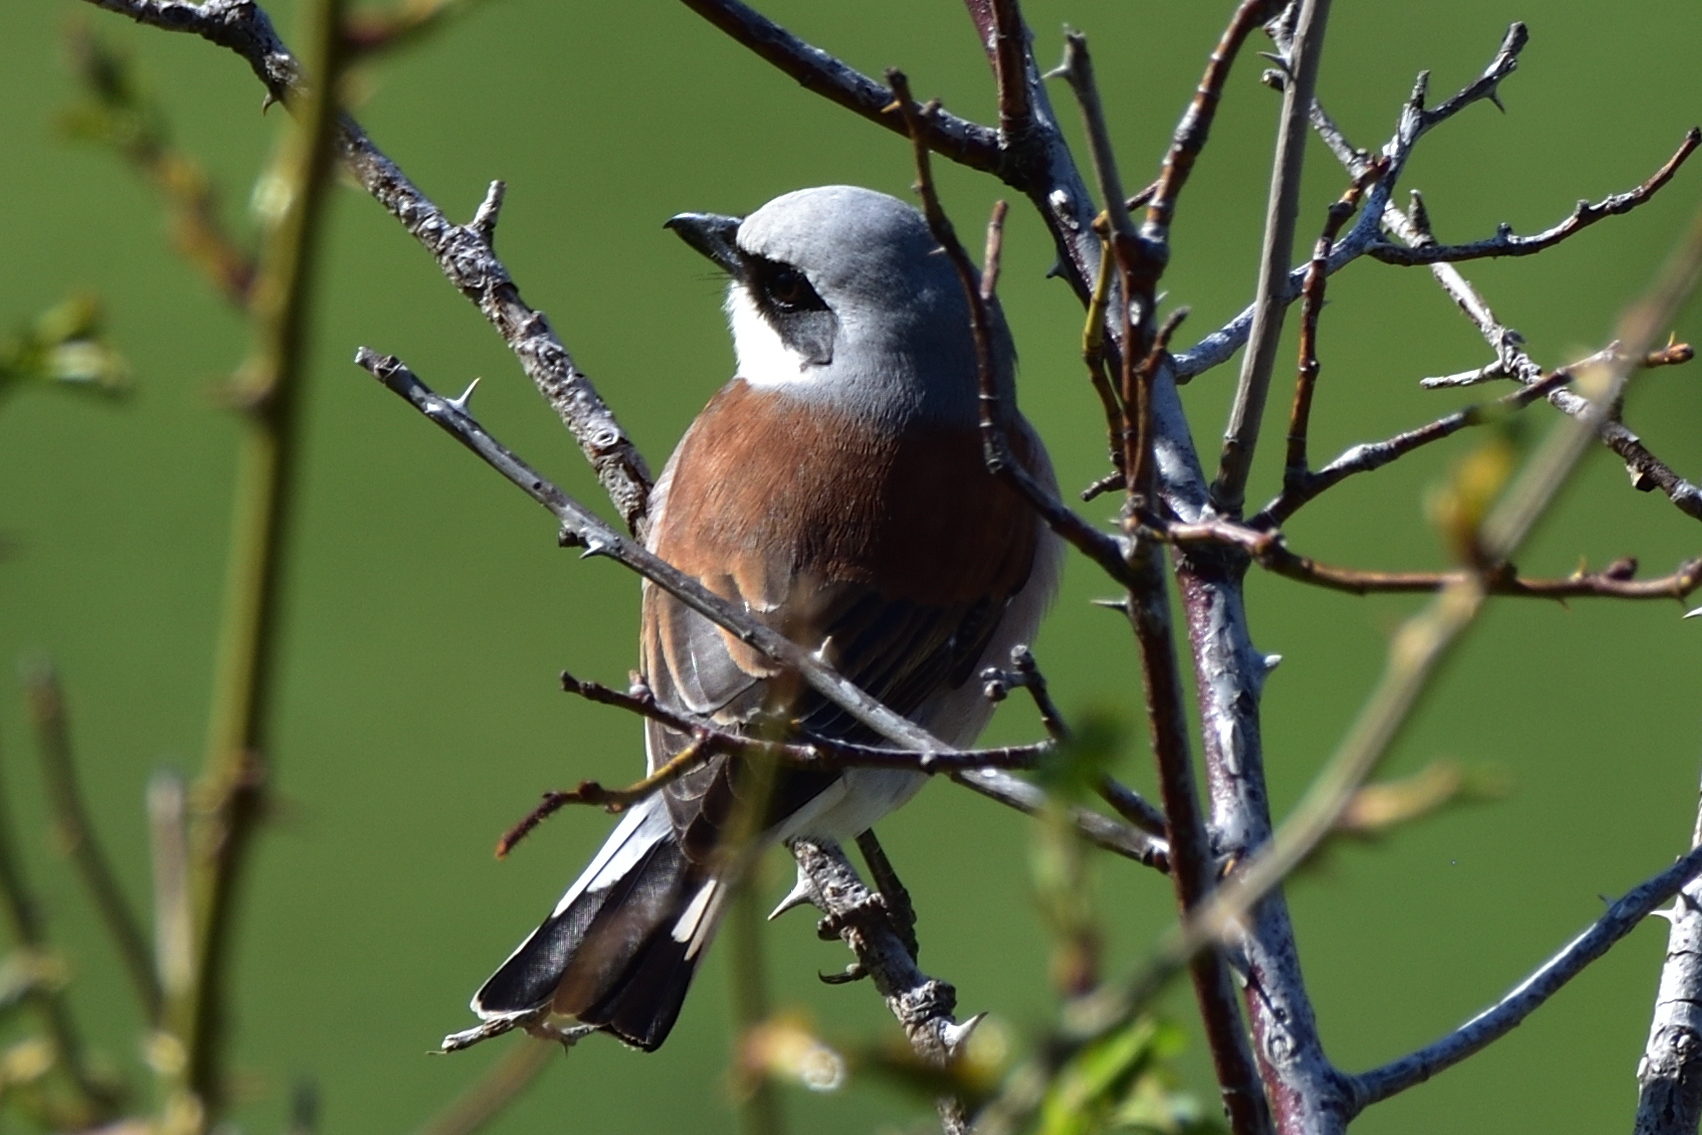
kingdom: Animalia
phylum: Chordata
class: Aves
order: Passeriformes
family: Laniidae
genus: Lanius
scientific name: Lanius collurio
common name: Red-backed shrike
